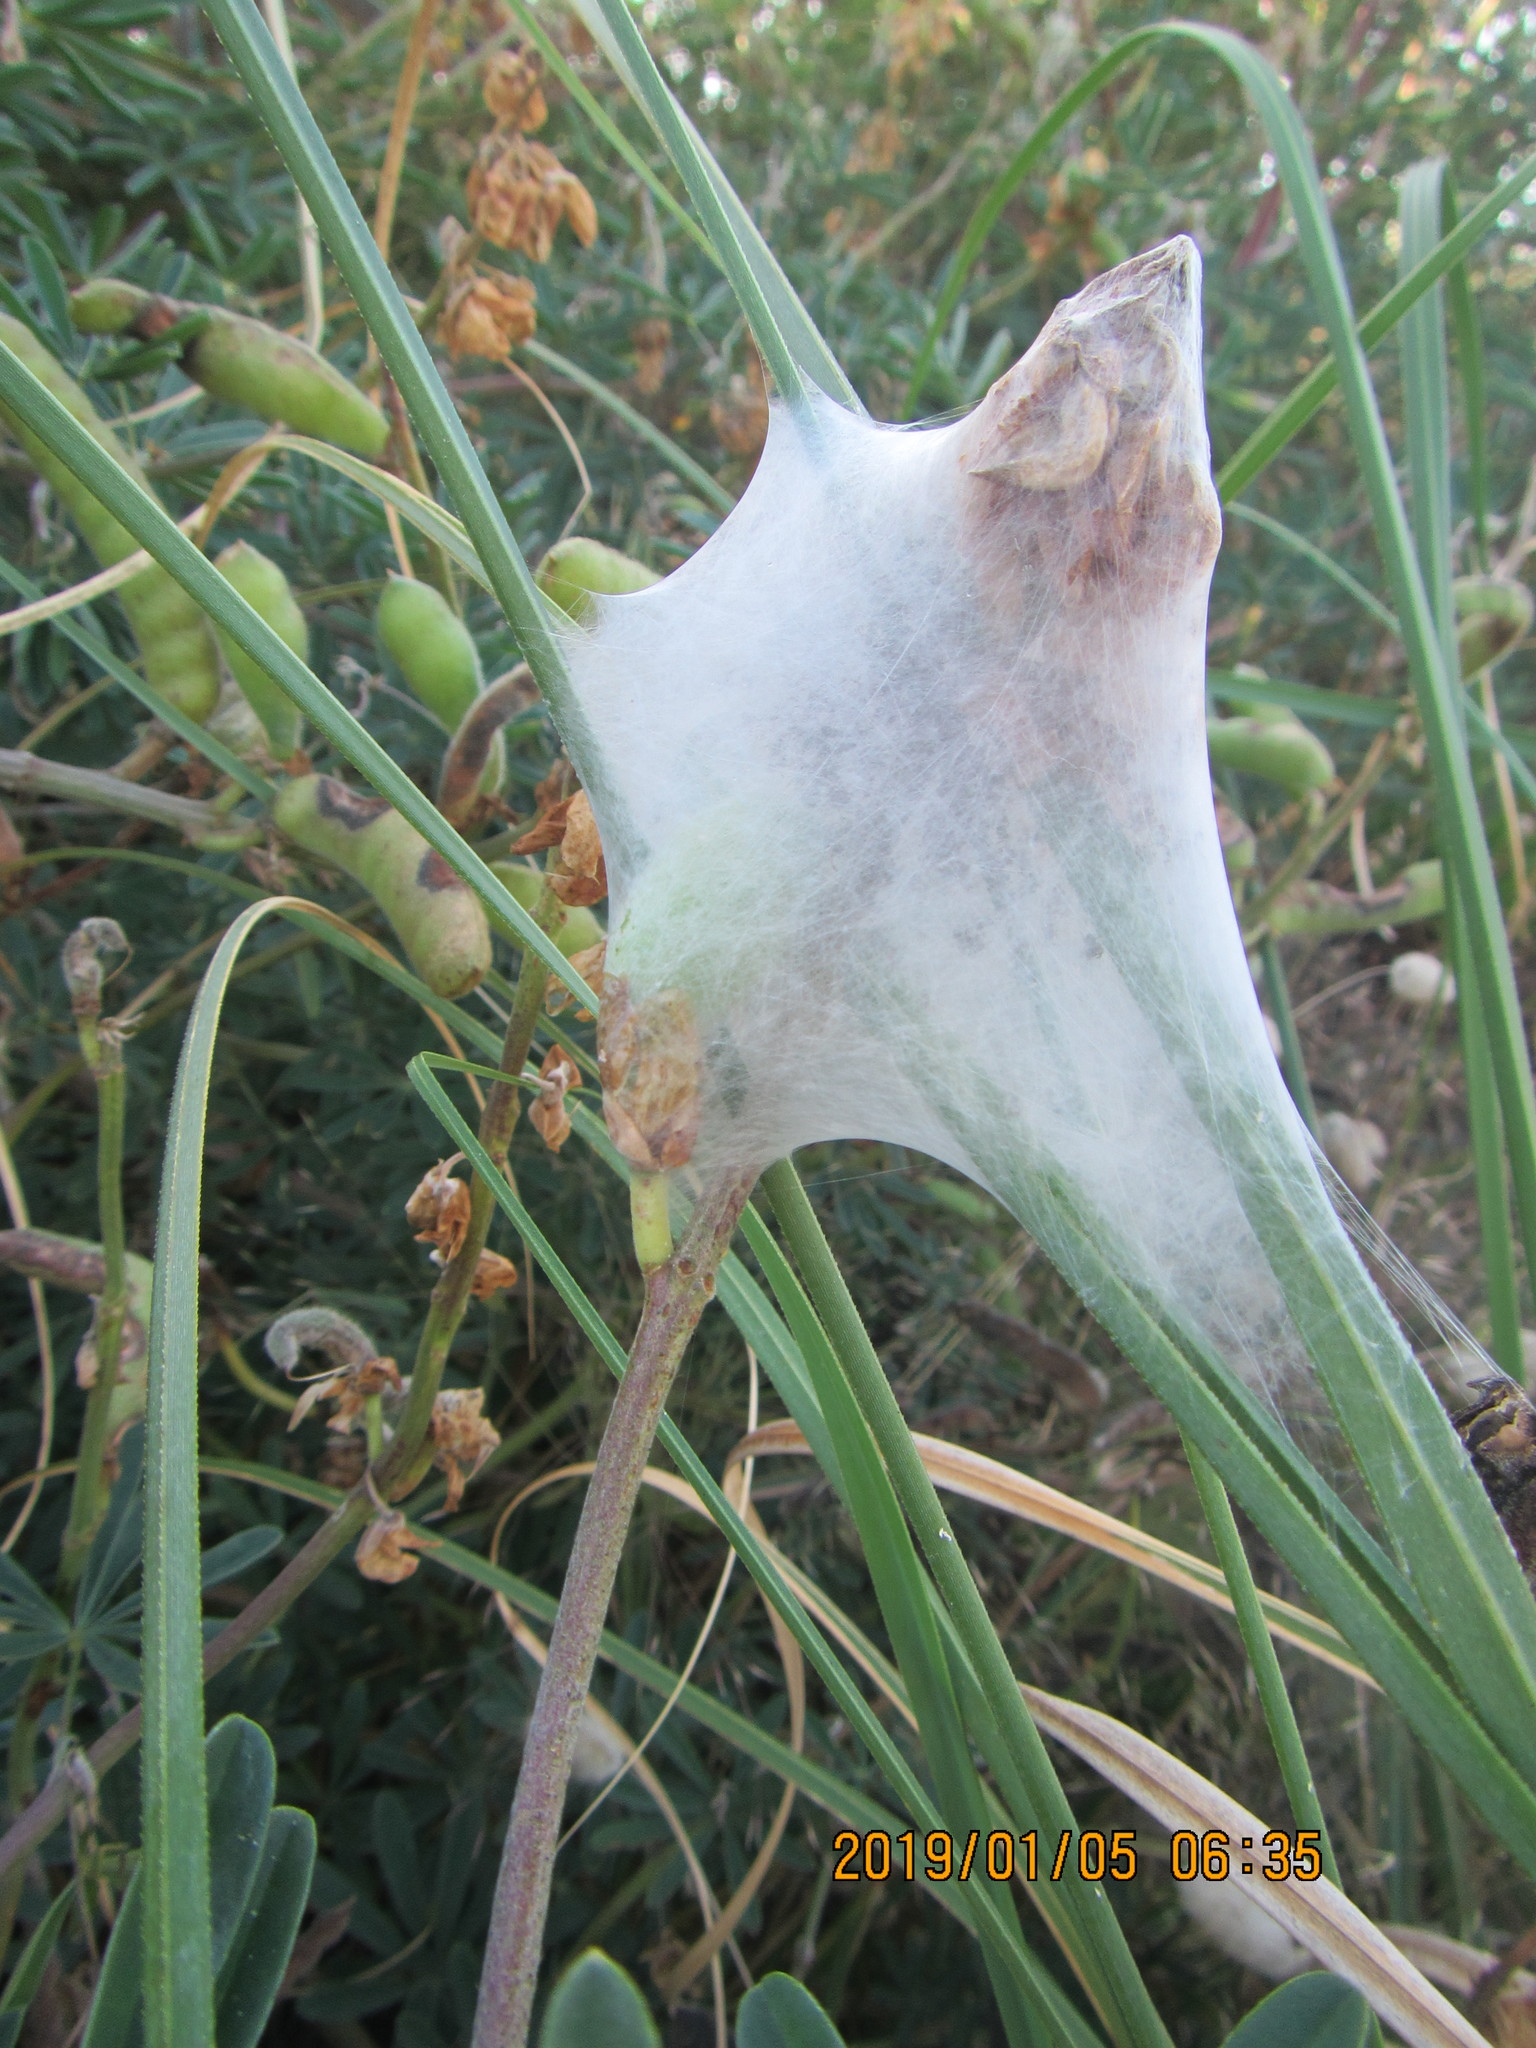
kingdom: Animalia
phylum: Arthropoda
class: Arachnida
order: Araneae
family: Pisauridae
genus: Dolomedes
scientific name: Dolomedes minor
